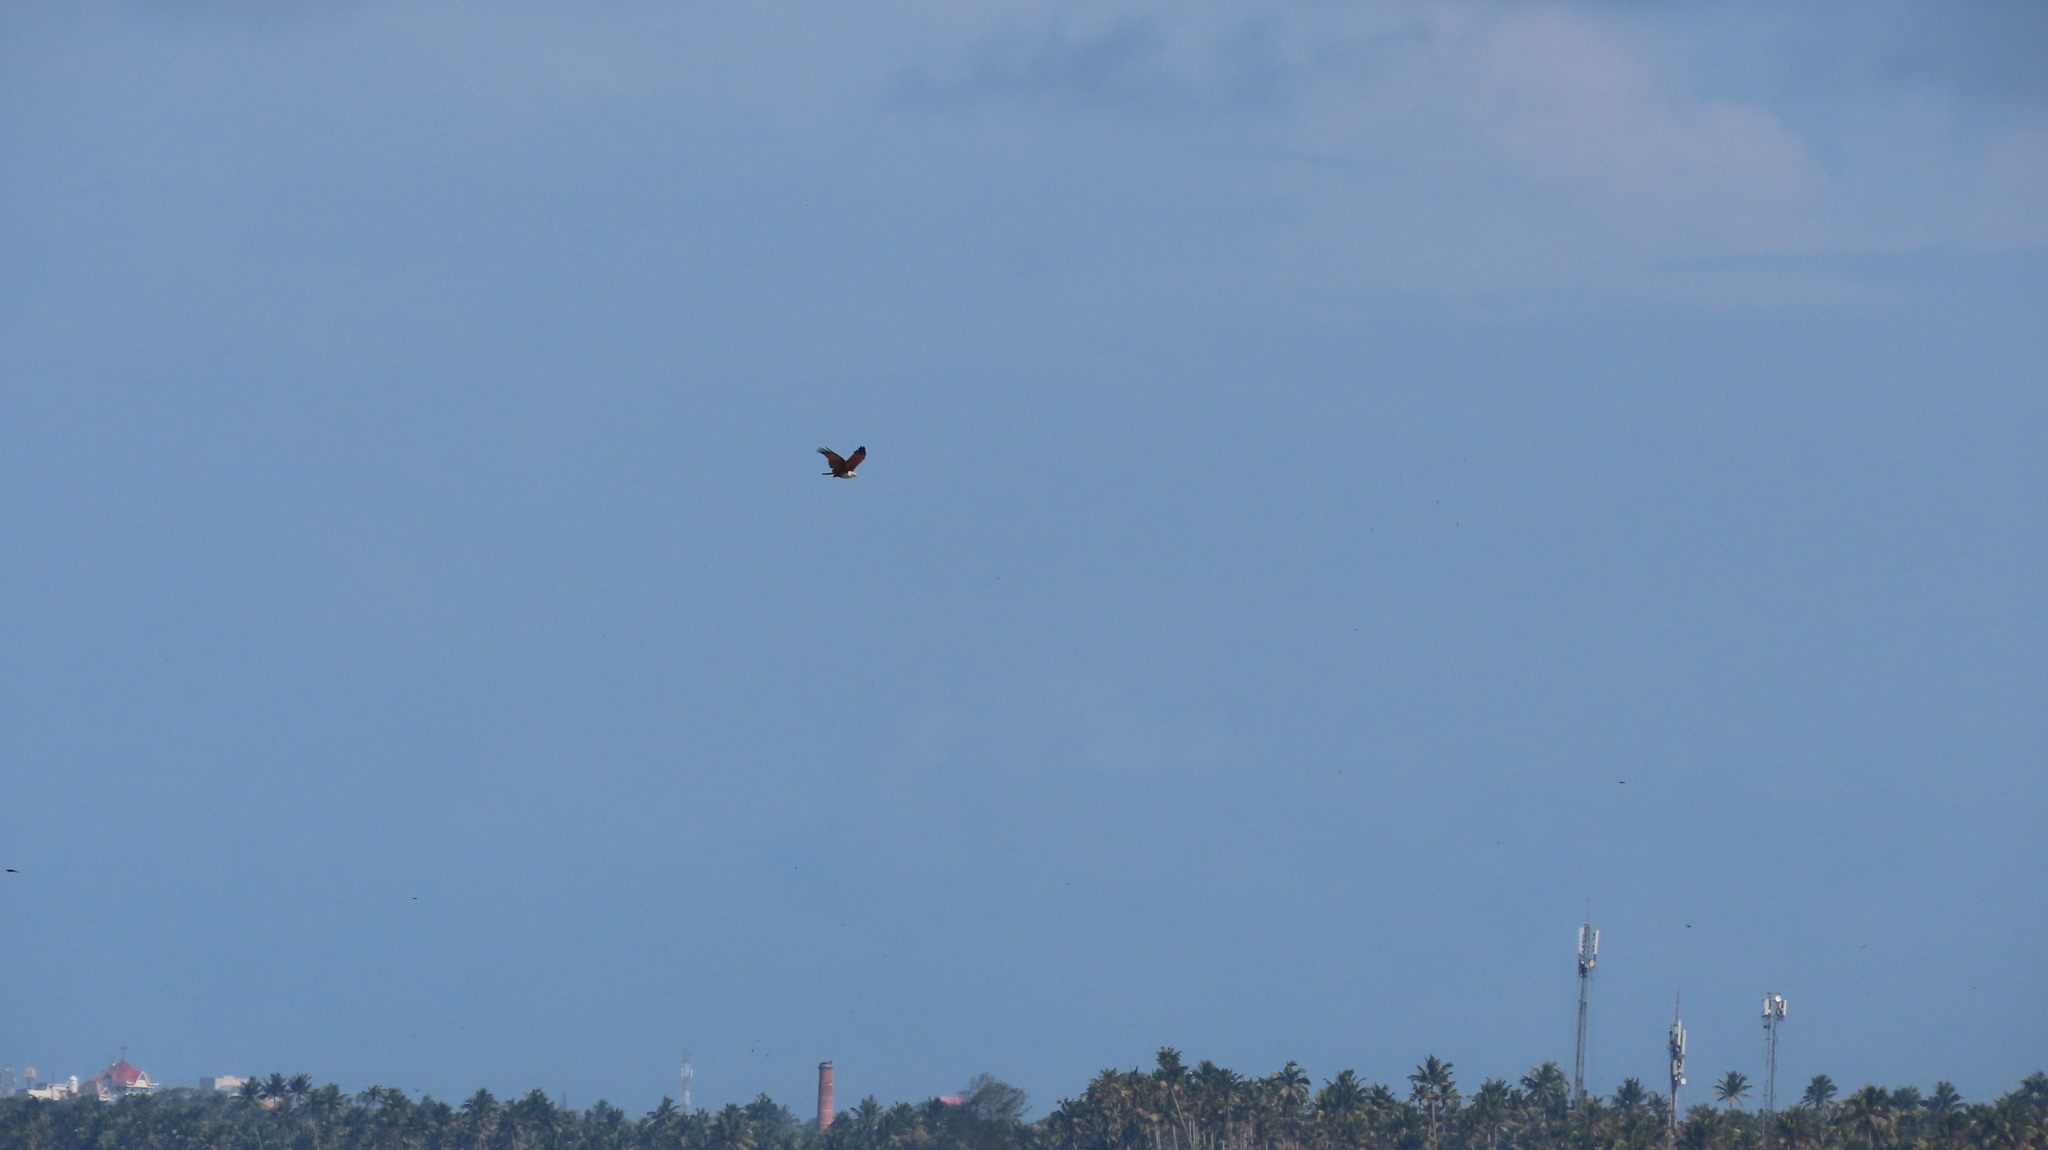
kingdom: Animalia
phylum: Chordata
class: Aves
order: Accipitriformes
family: Accipitridae
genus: Haliastur
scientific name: Haliastur indus
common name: Brahminy kite
